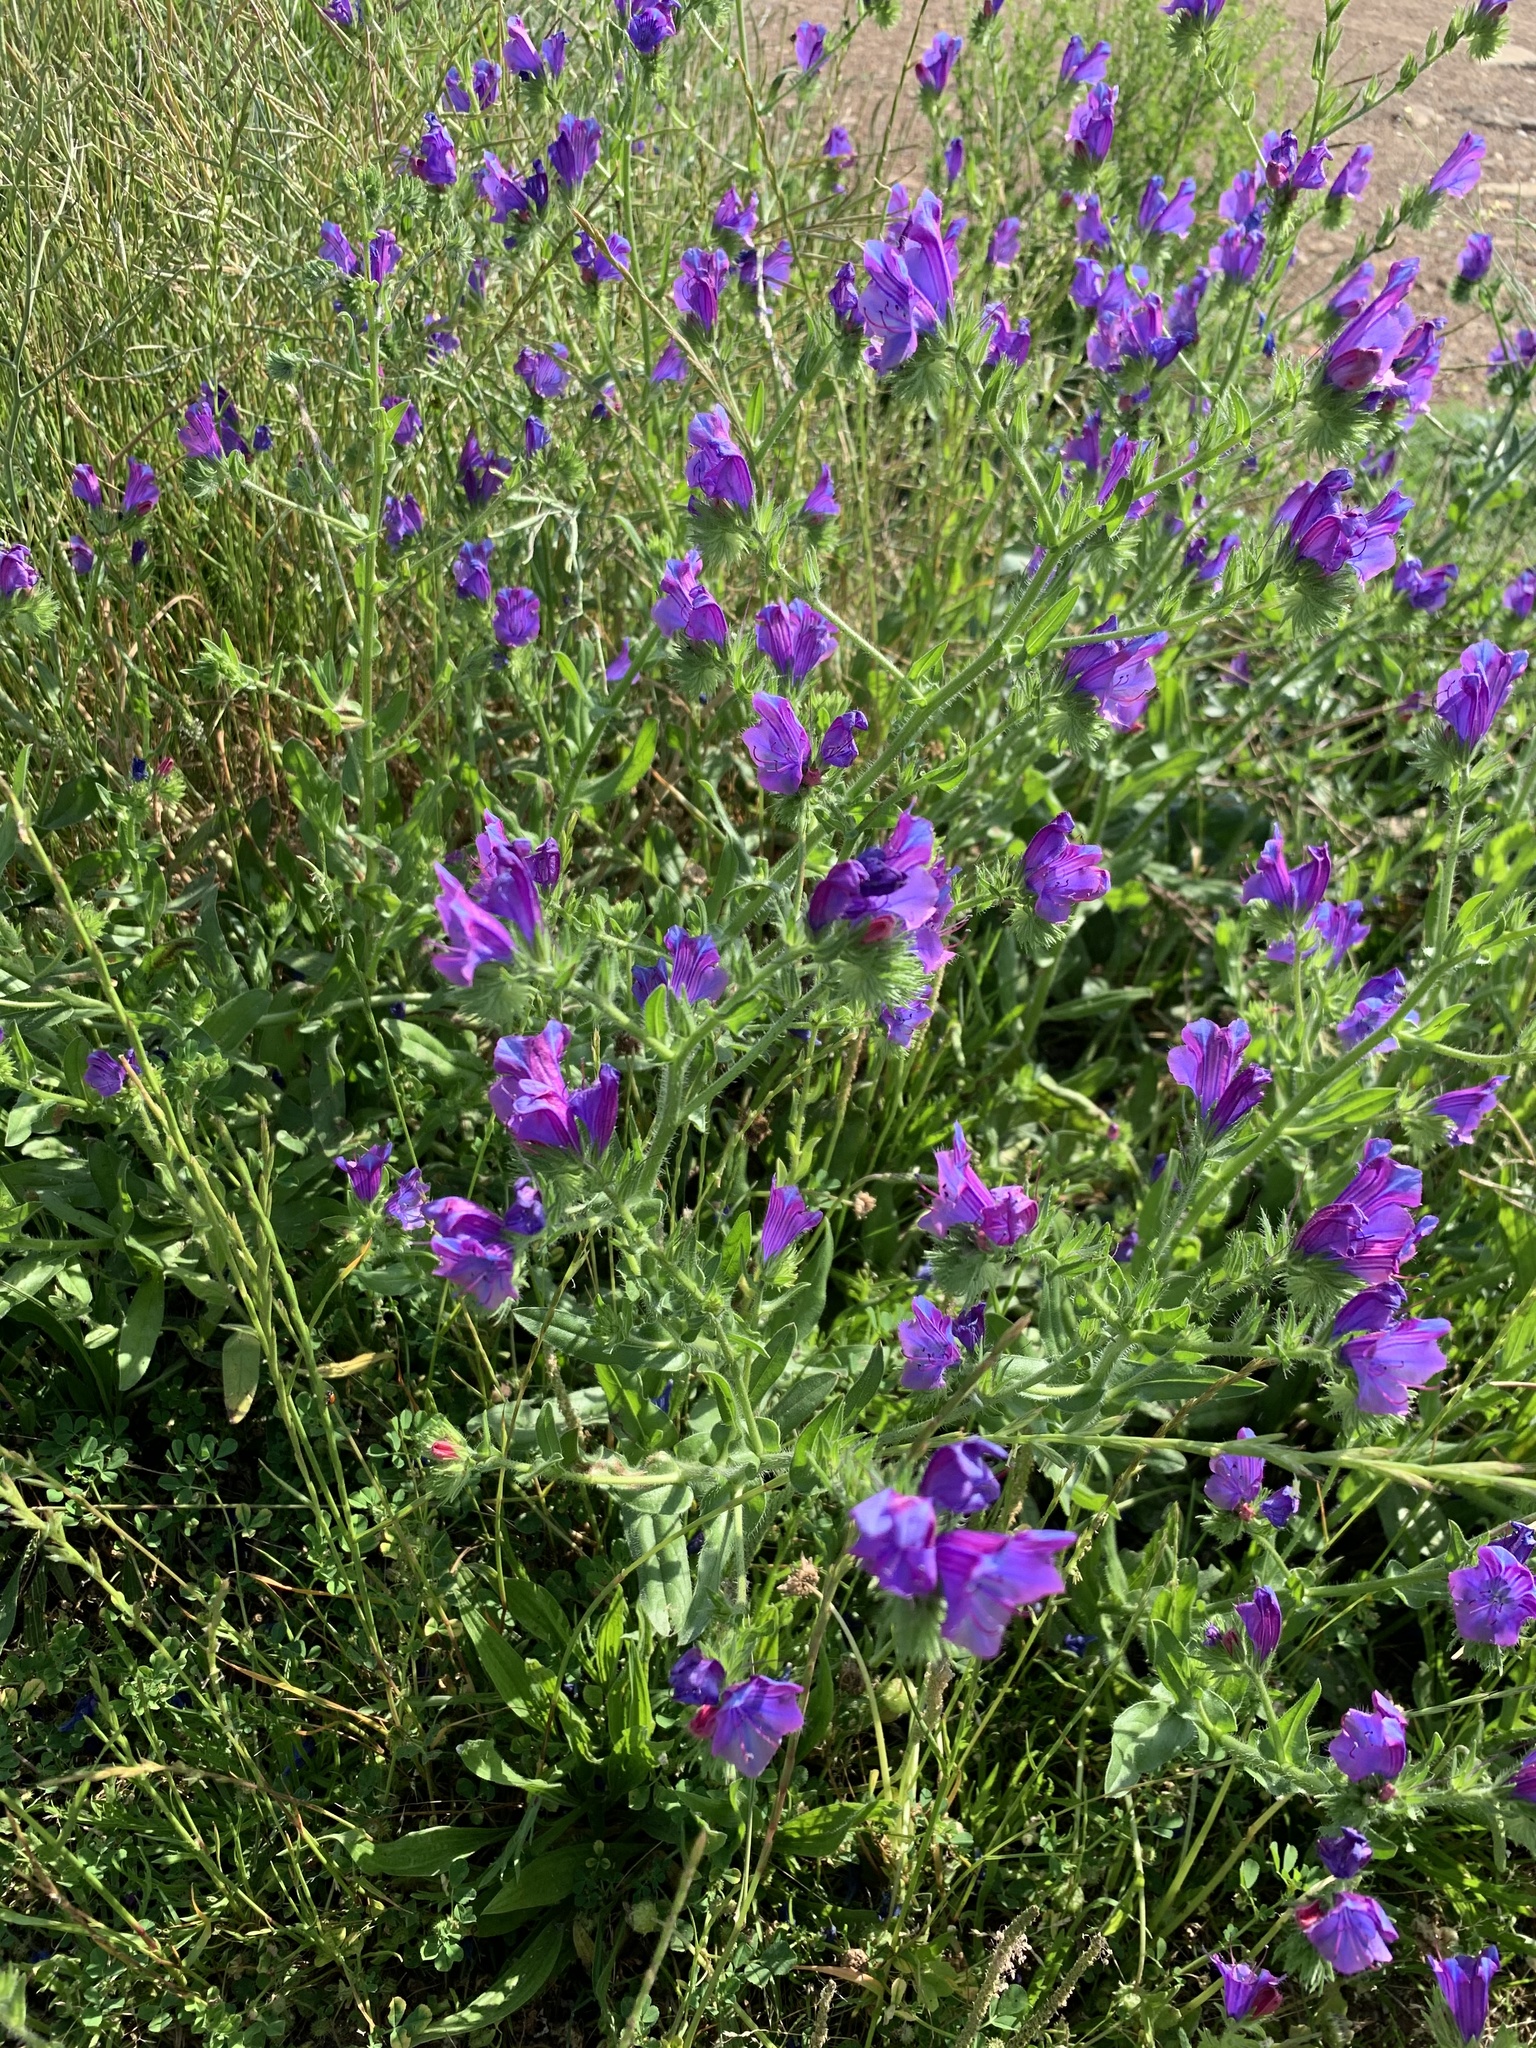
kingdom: Plantae
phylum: Tracheophyta
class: Magnoliopsida
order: Boraginales
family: Boraginaceae
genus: Echium
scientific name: Echium plantagineum
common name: Purple viper's-bugloss
